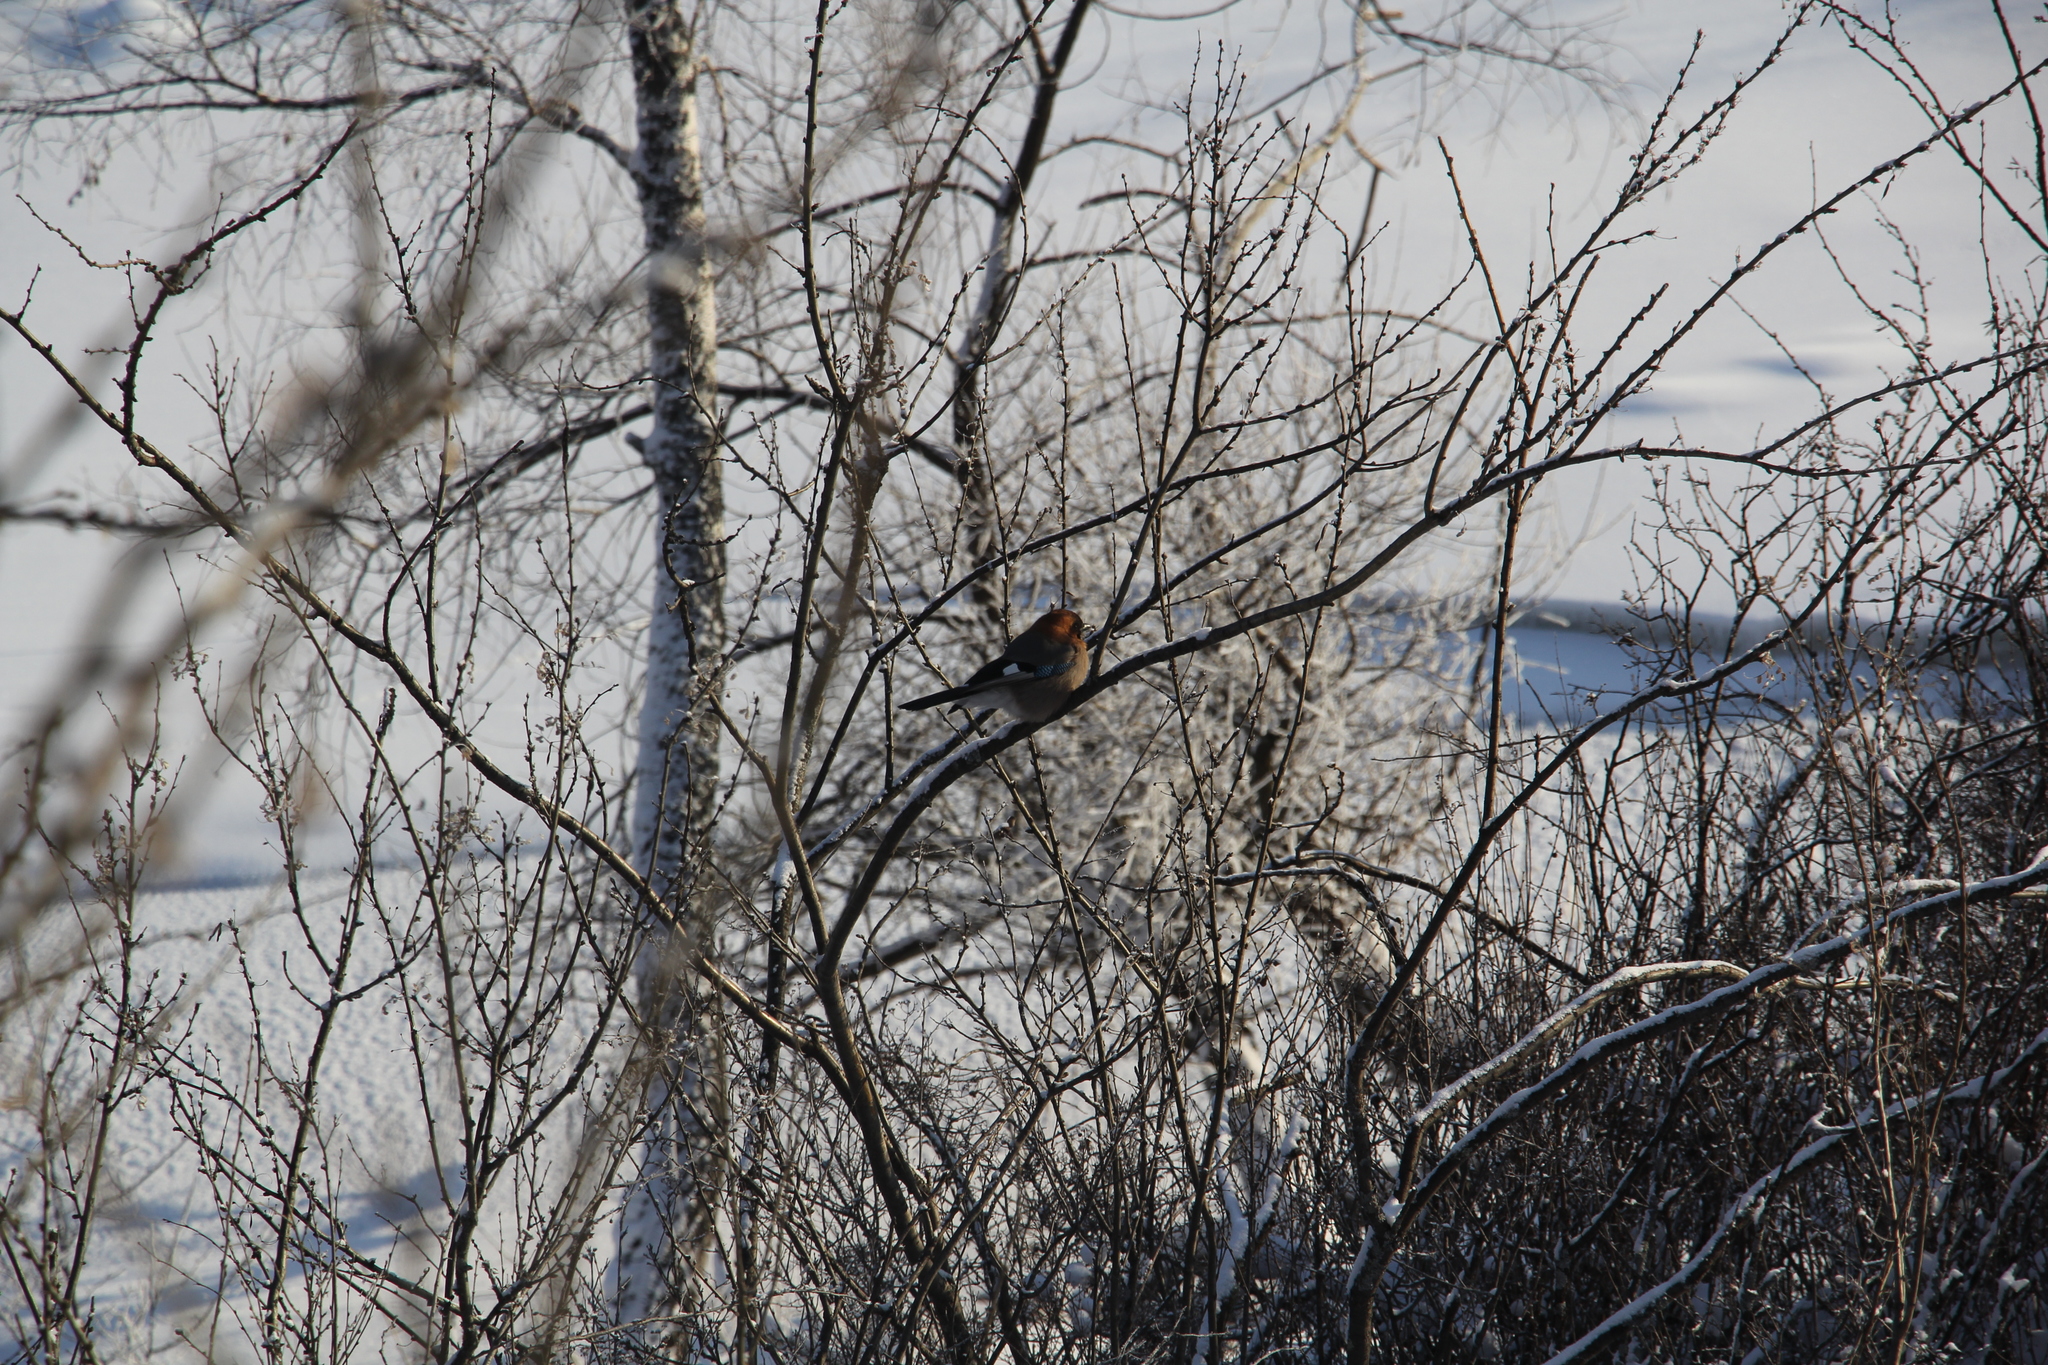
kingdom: Animalia
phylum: Chordata
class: Aves
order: Passeriformes
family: Corvidae
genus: Garrulus
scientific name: Garrulus glandarius
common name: Eurasian jay
